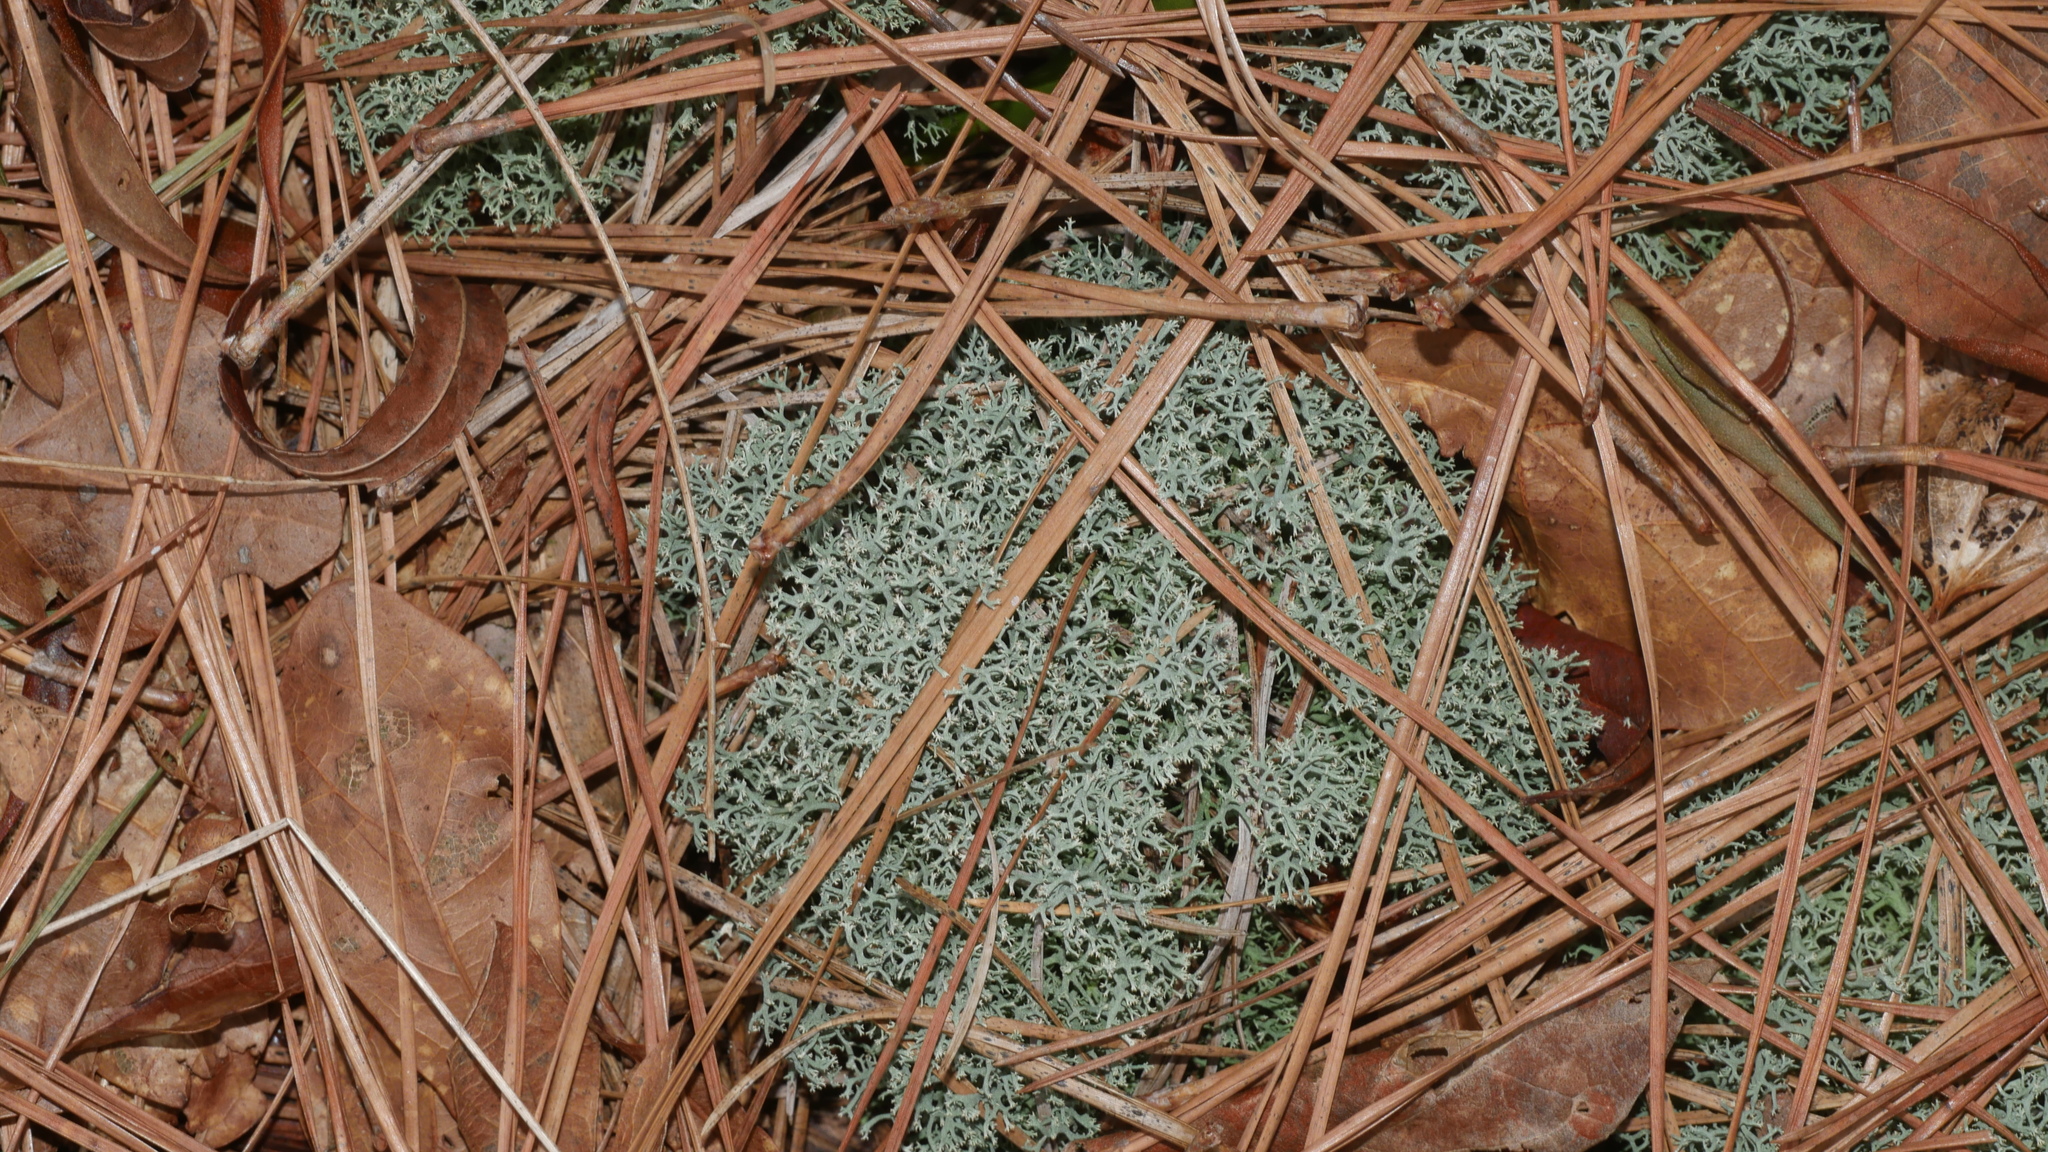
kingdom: Fungi
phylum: Ascomycota
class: Lecanoromycetes
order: Lecanorales
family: Cladoniaceae
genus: Cladonia
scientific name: Cladonia subtenuis
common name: Dixie reindeer lichen
